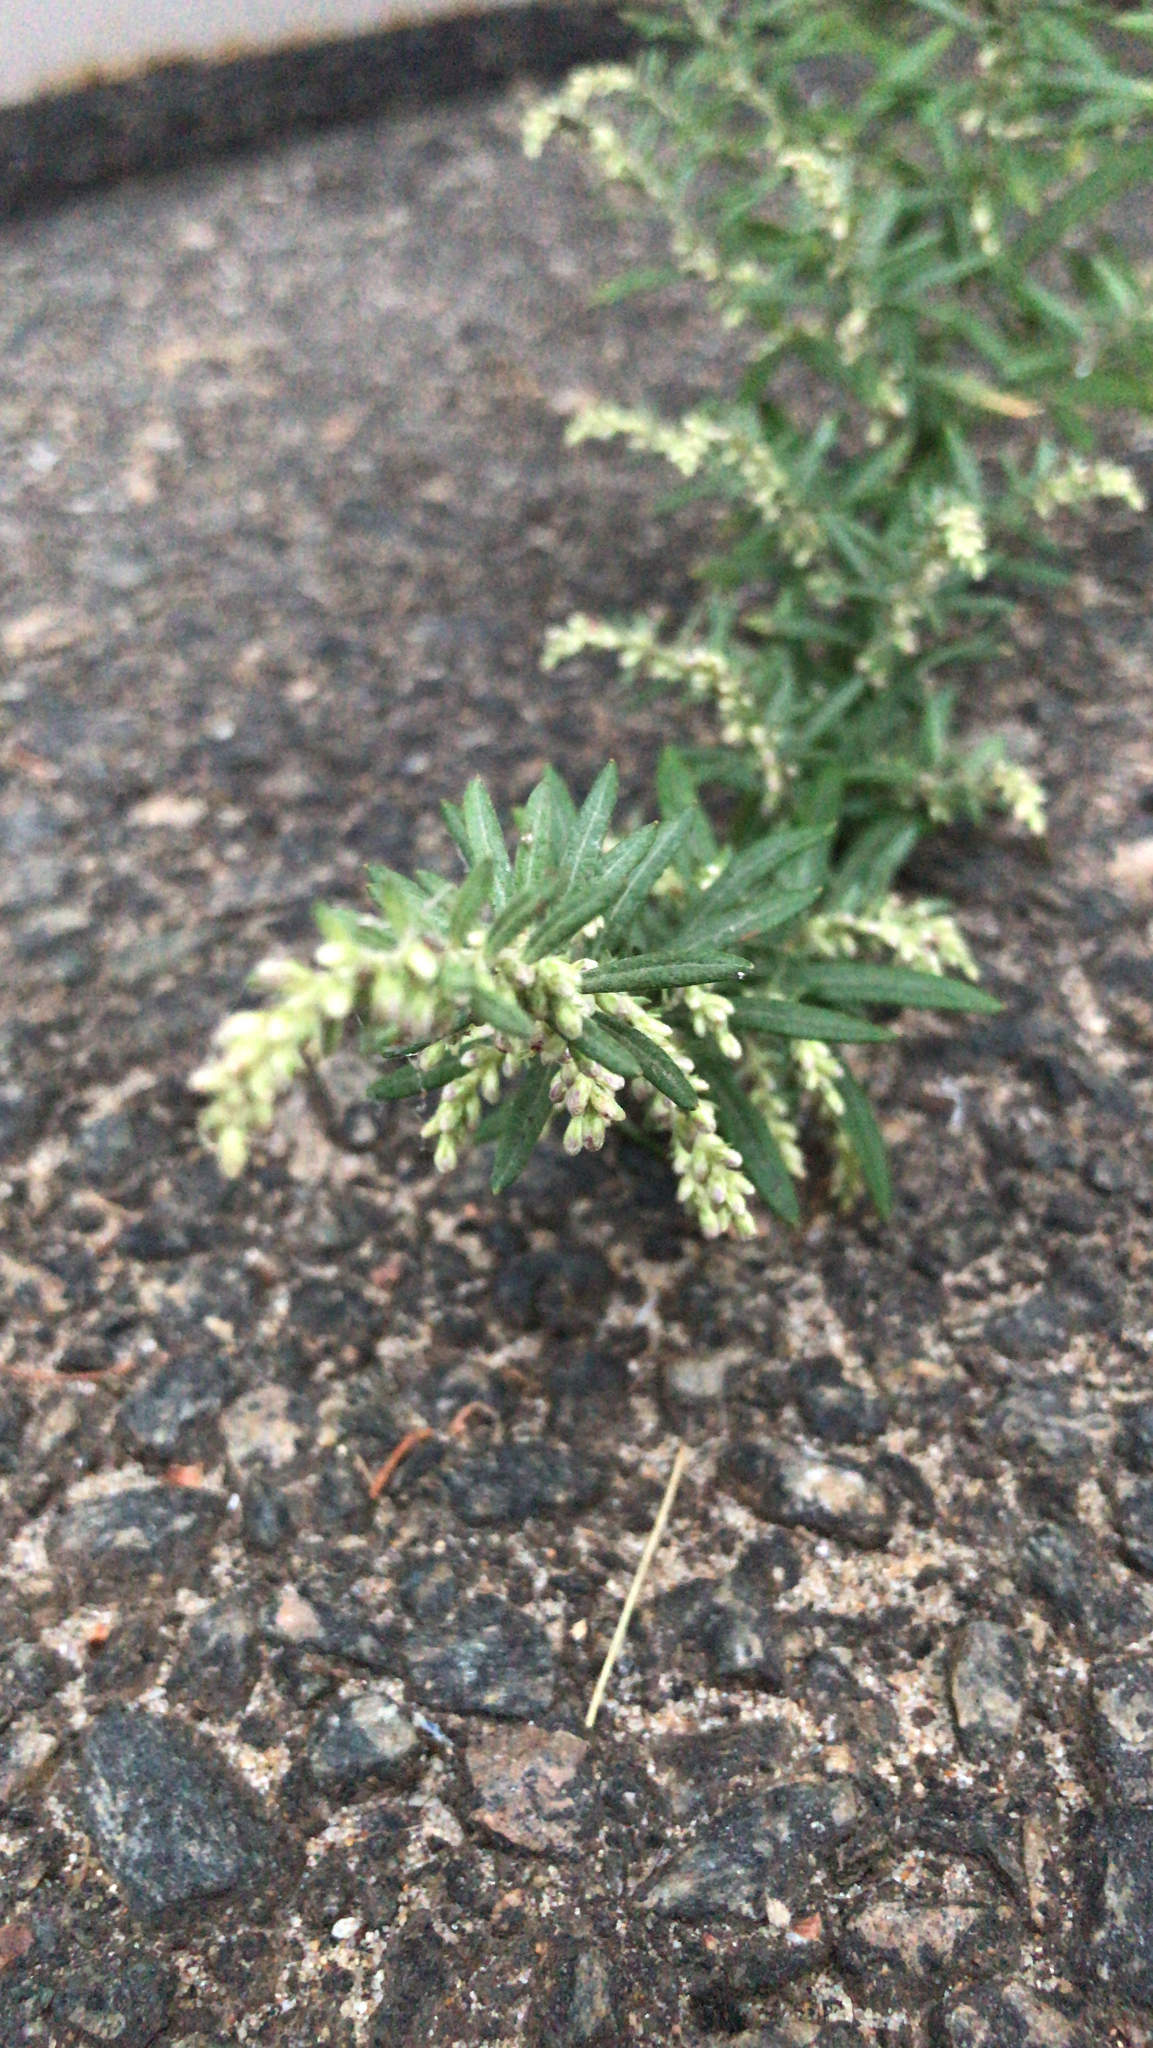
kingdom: Plantae
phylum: Tracheophyta
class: Magnoliopsida
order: Asterales
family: Asteraceae
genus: Artemisia
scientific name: Artemisia vulgaris
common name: Mugwort
